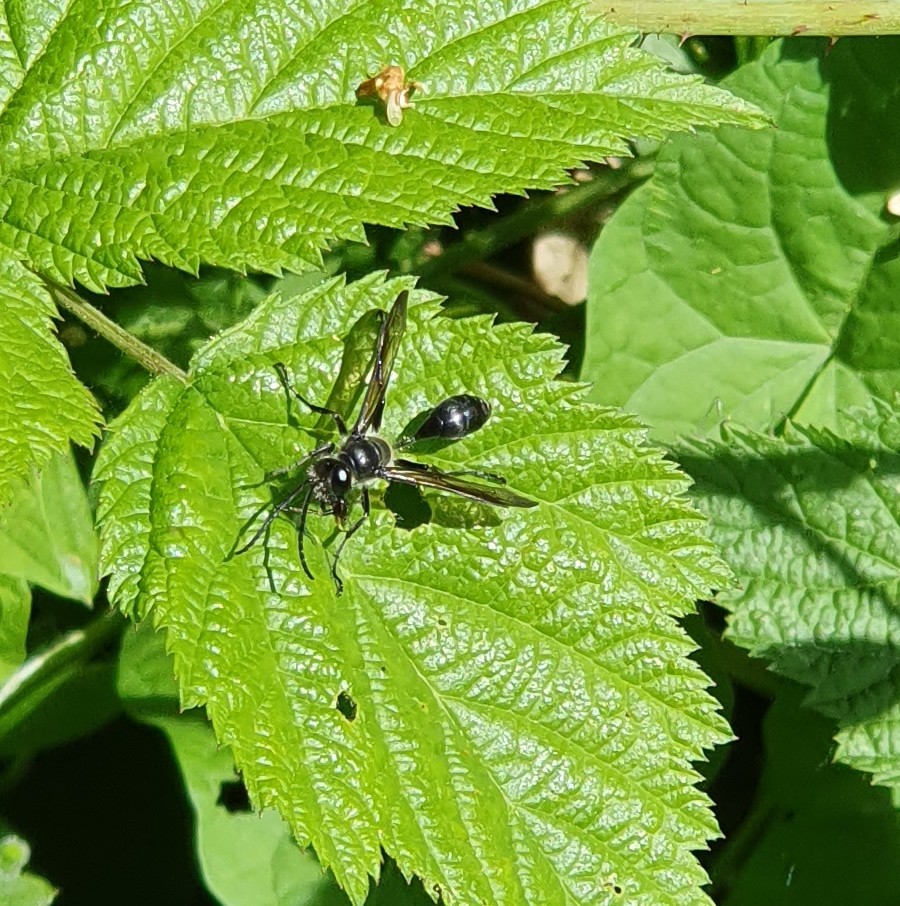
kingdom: Animalia
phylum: Arthropoda
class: Insecta
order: Hymenoptera
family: Sphecidae
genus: Isodontia
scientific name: Isodontia mexicana
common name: Mud dauber
